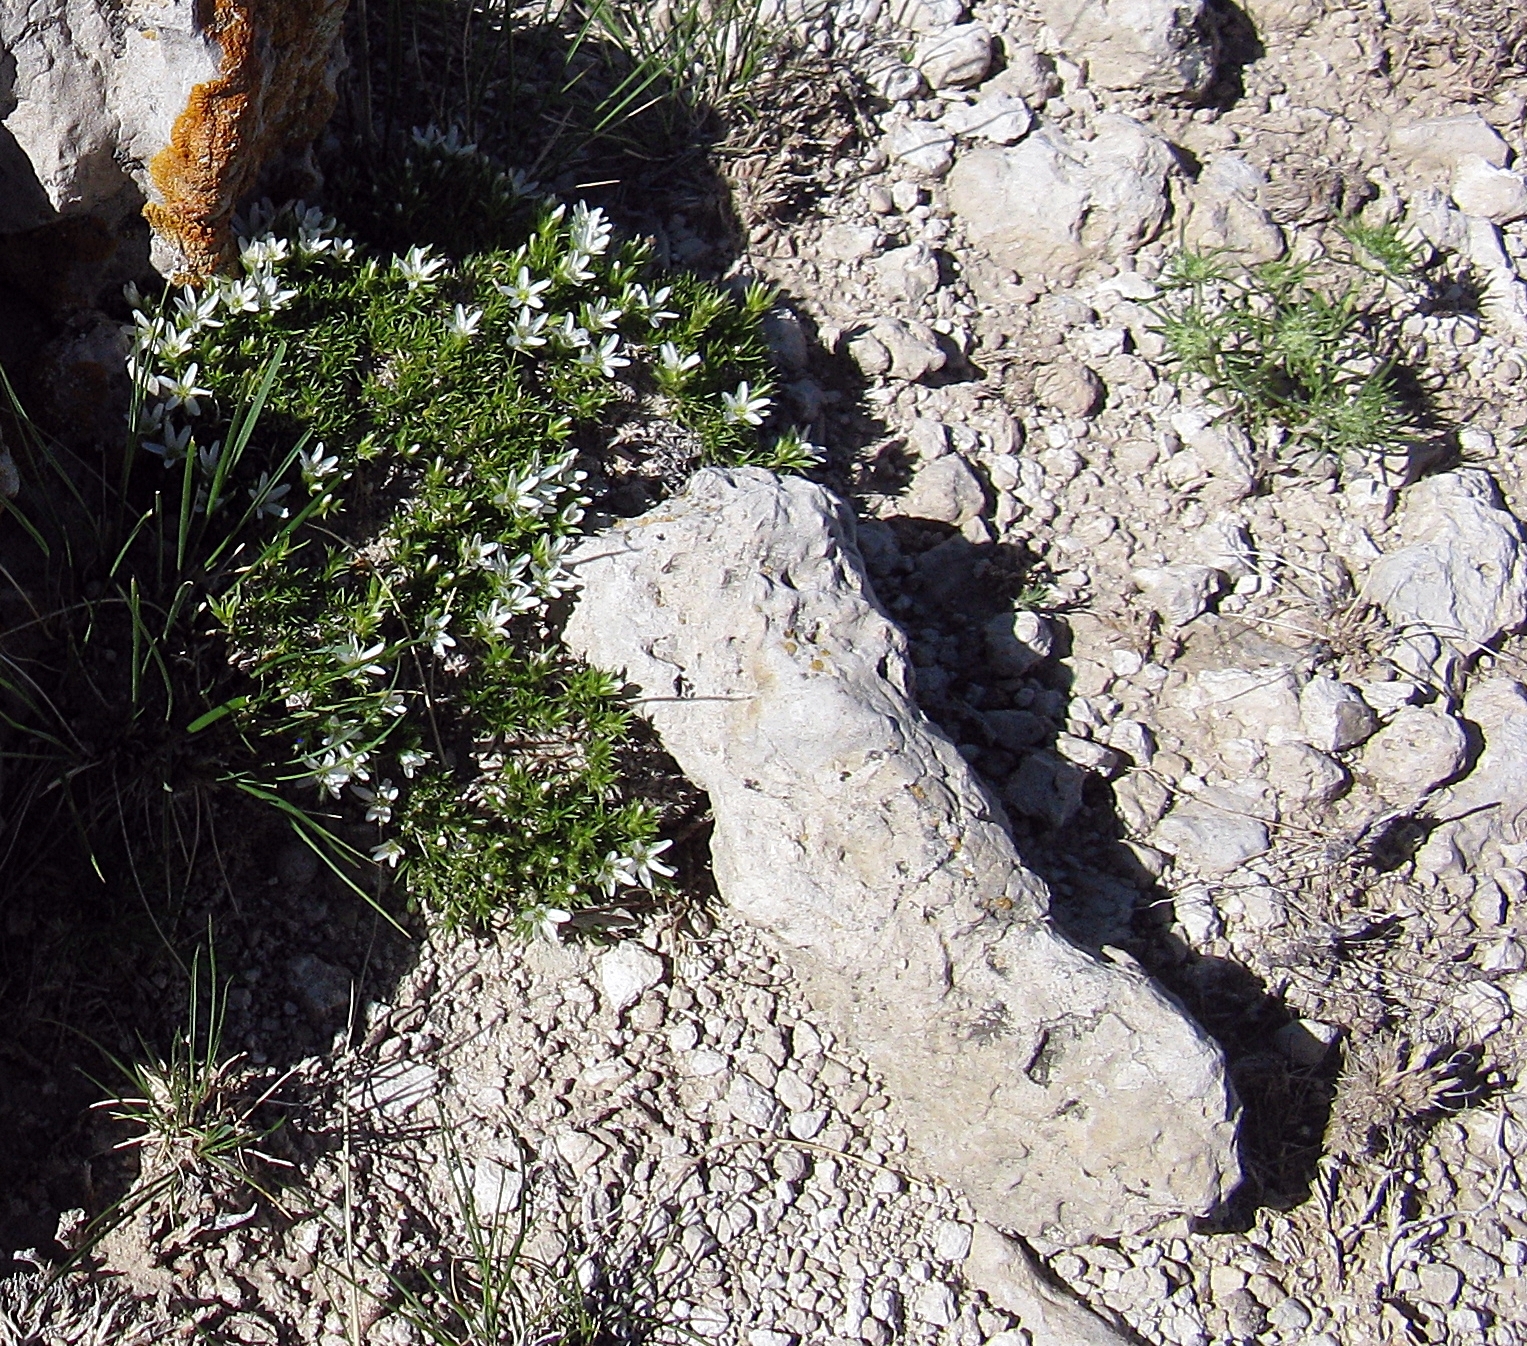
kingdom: Plantae
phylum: Tracheophyta
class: Magnoliopsida
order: Caryophyllales
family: Caryophyllaceae
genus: Eremogone
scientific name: Eremogone hookeri
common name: Hooker's sandwort
